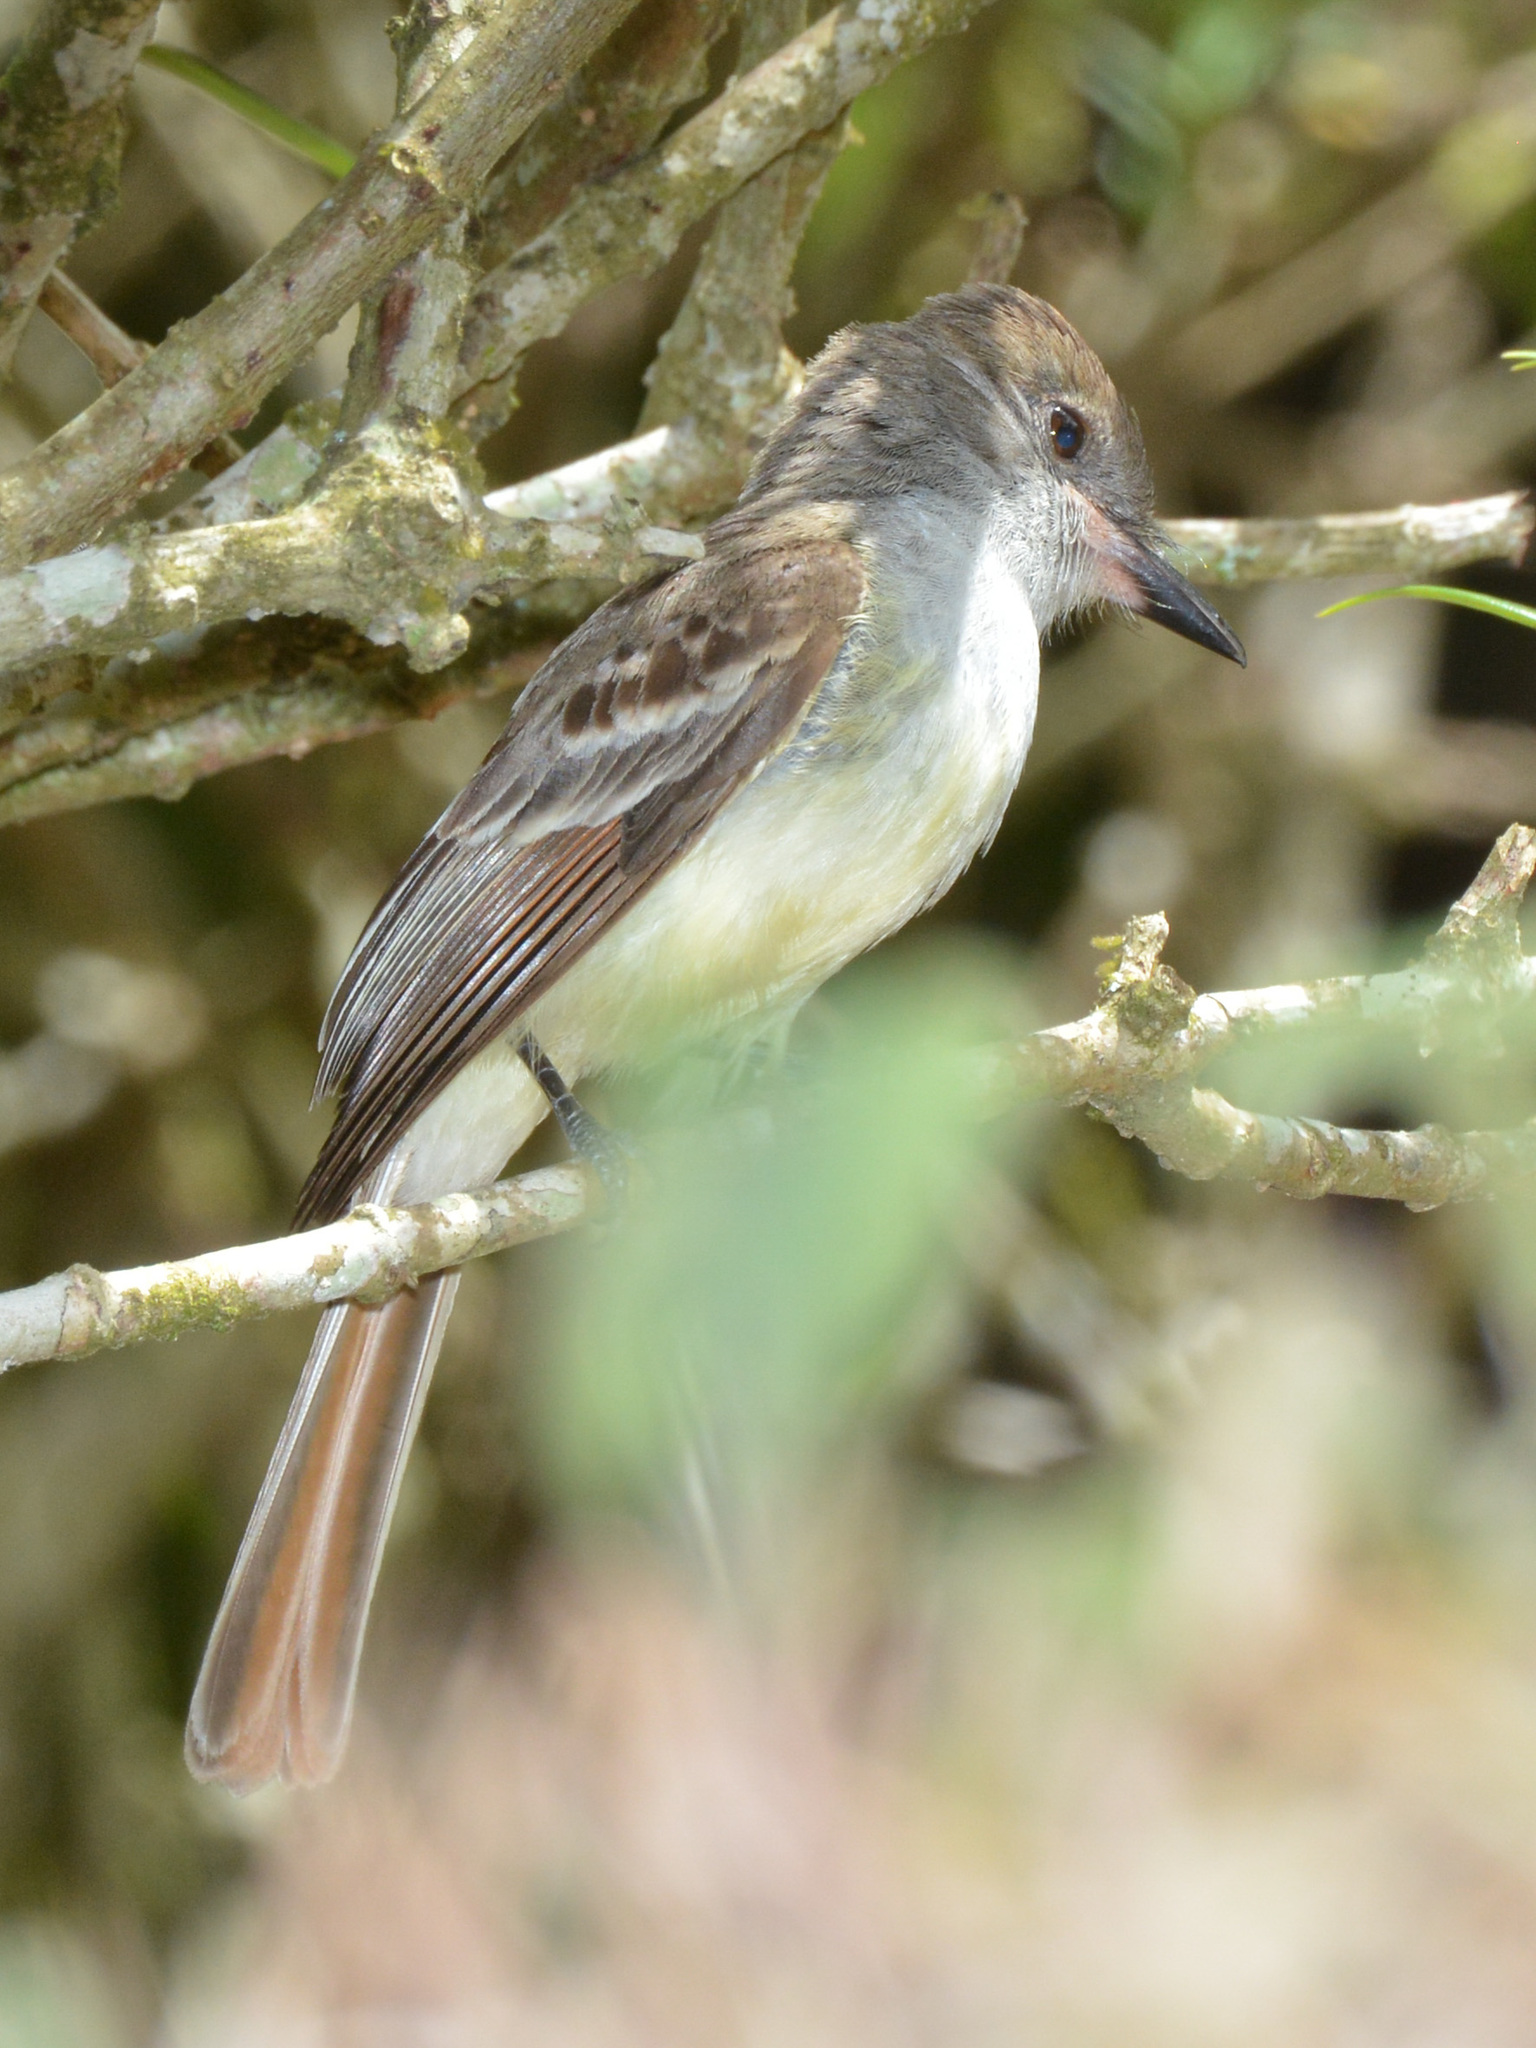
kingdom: Animalia
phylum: Chordata
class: Aves
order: Passeriformes
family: Tyrannidae
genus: Myiarchus
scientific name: Myiarchus tyrannulus
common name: Brown-crested flycatcher
